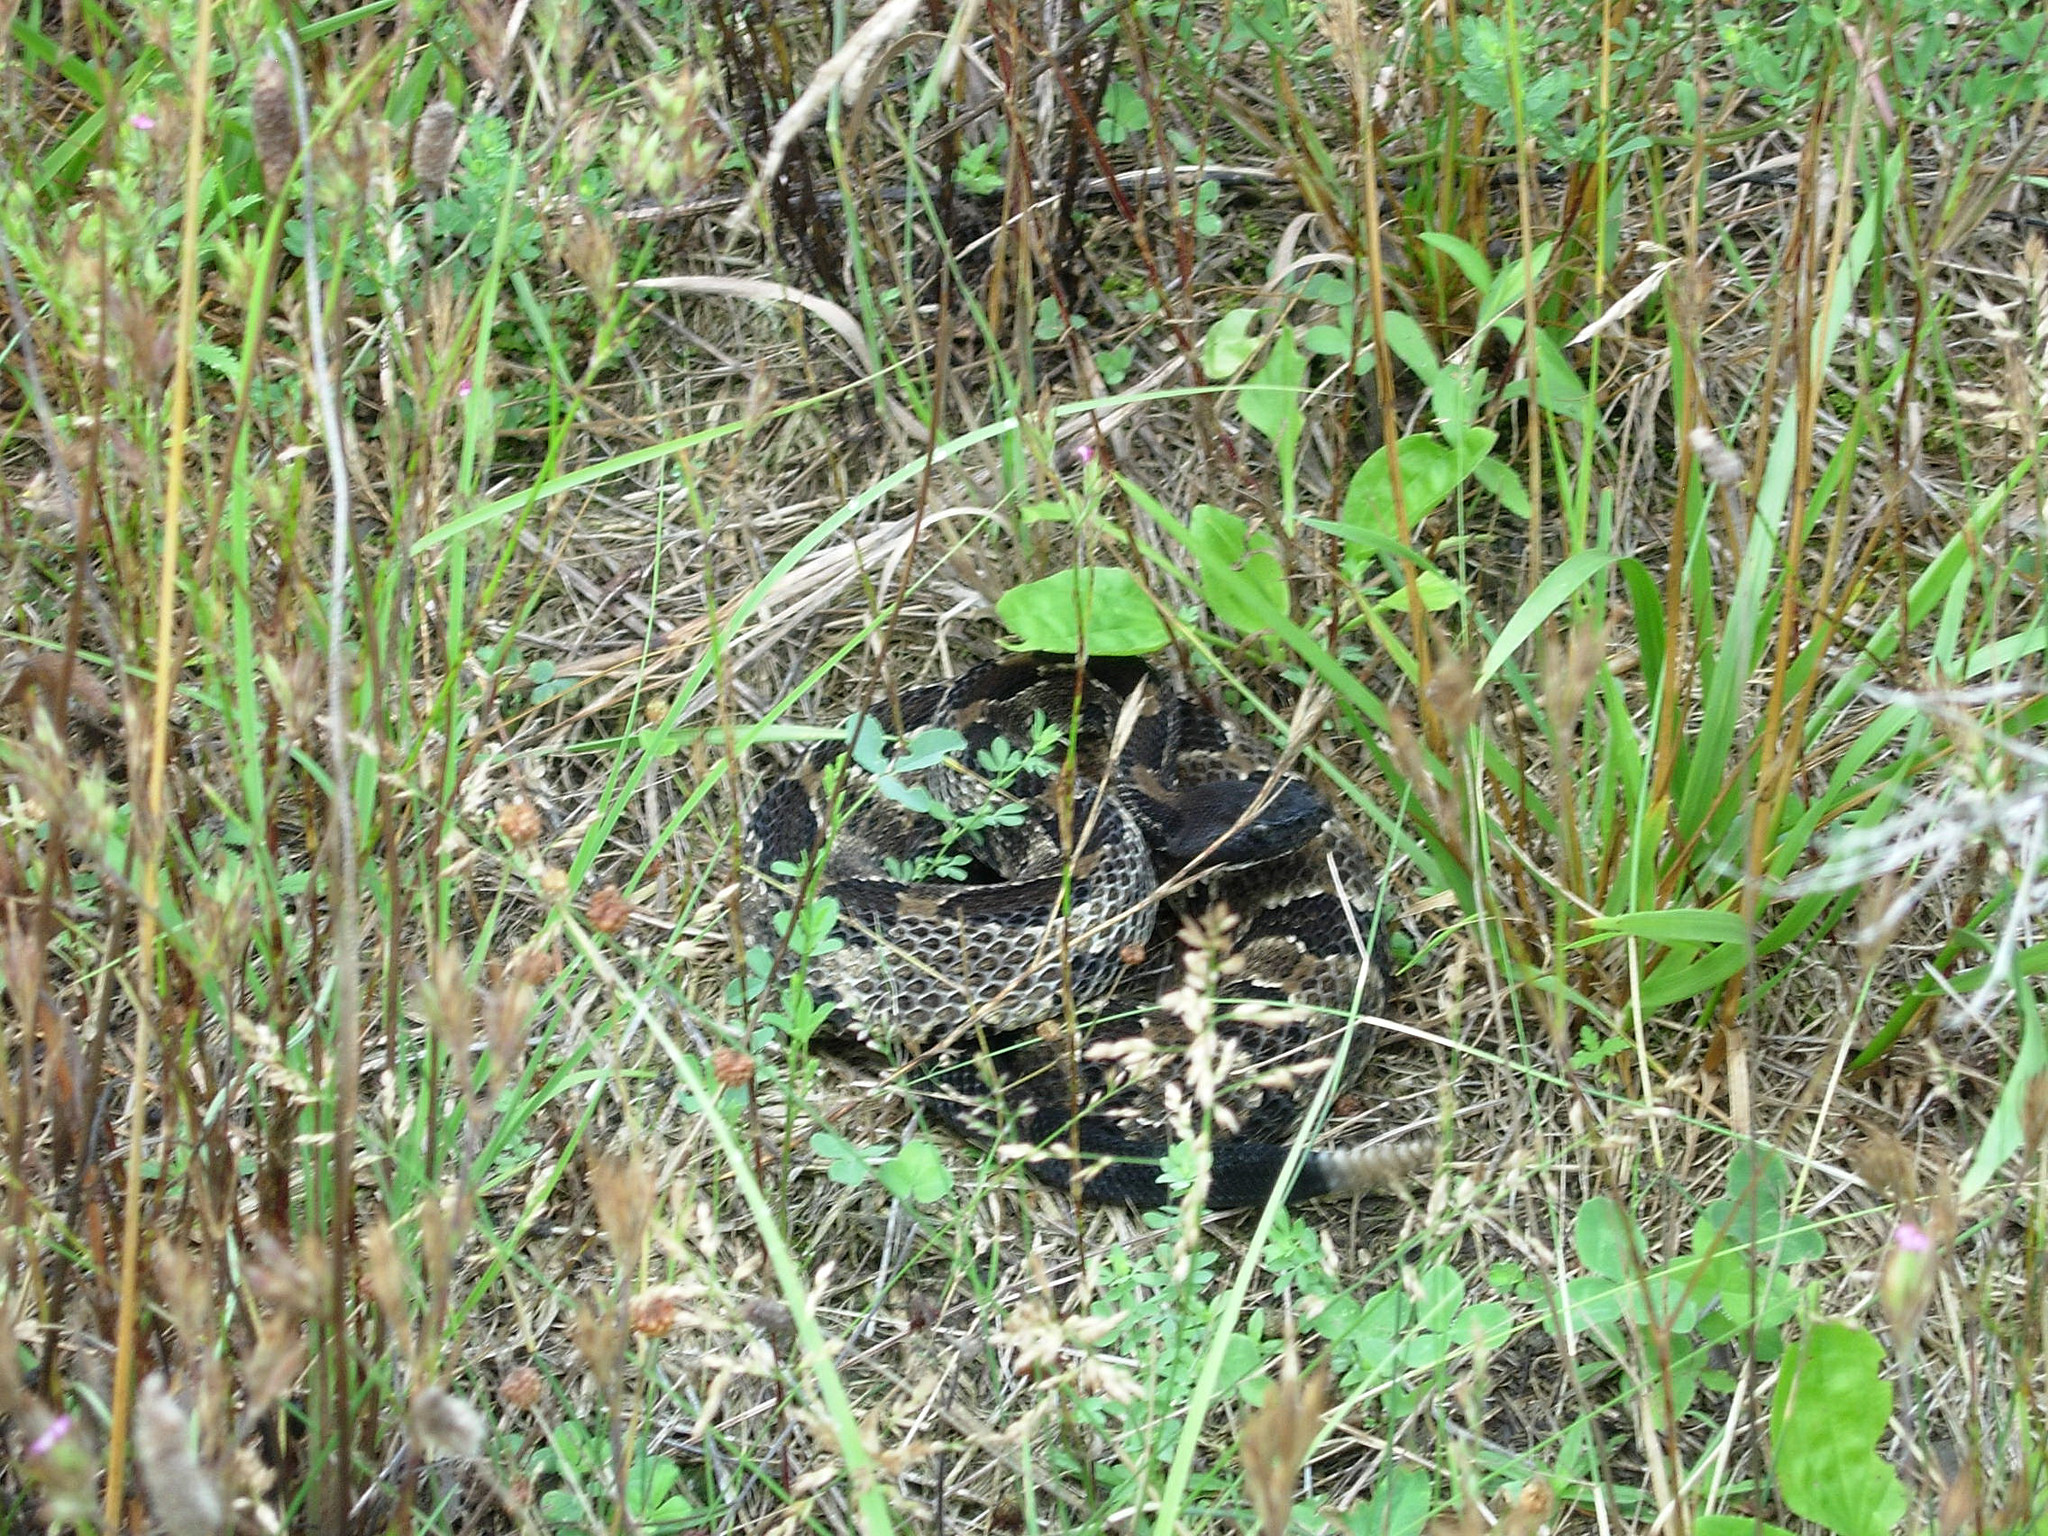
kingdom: Animalia
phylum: Chordata
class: Squamata
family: Viperidae
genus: Crotalus
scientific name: Crotalus horridus
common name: Timber rattlesnake
